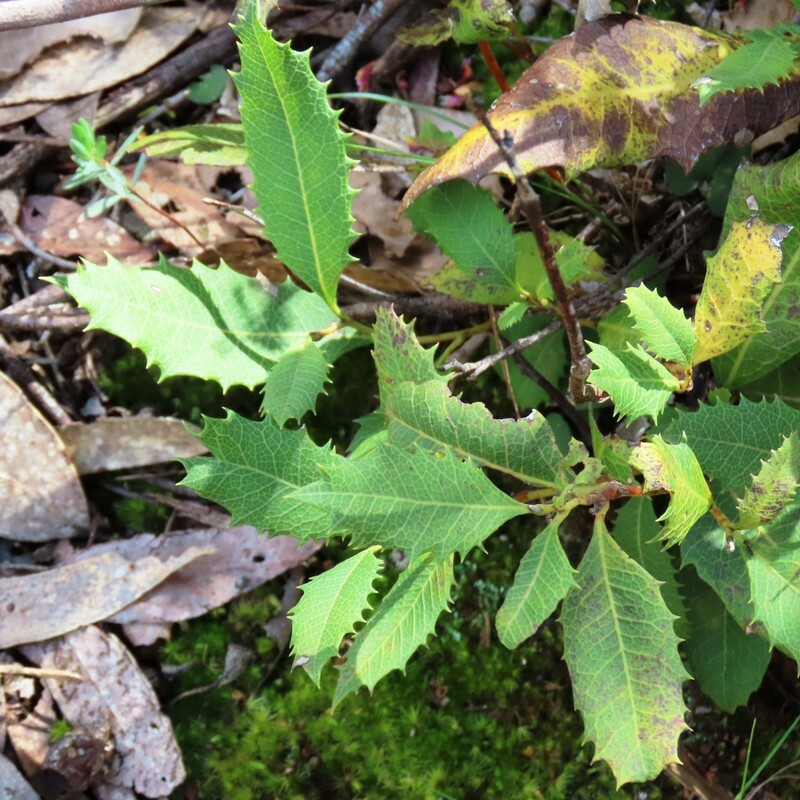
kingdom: Plantae
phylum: Tracheophyta
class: Magnoliopsida
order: Proteales
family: Proteaceae
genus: Lomatia
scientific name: Lomatia ilicifolia
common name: Native-holly
